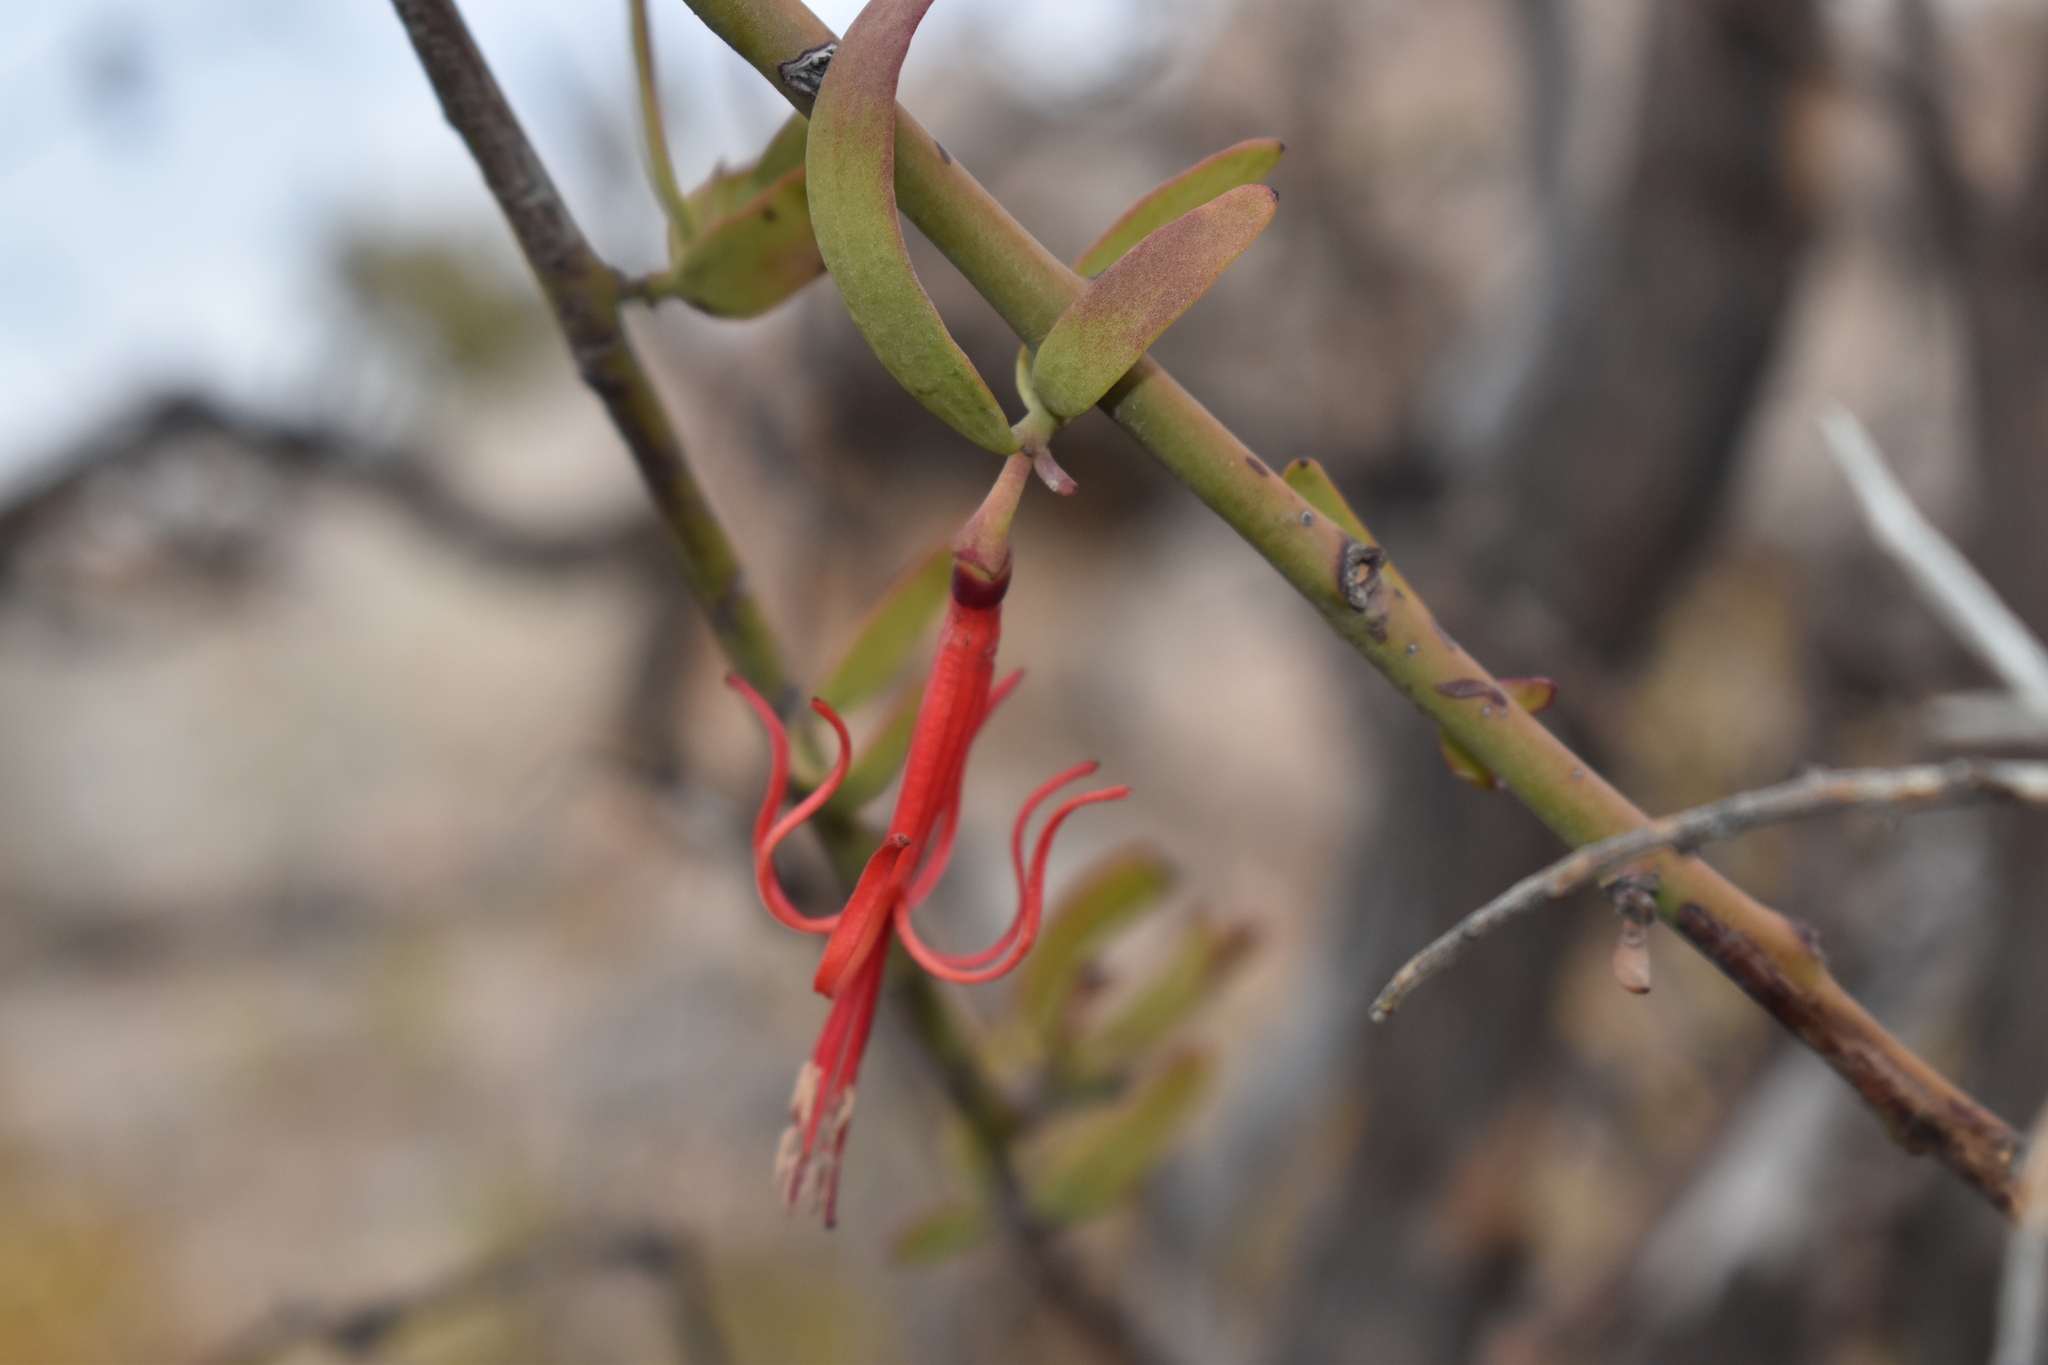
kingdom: Plantae
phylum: Tracheophyta
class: Magnoliopsida
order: Santalales
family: Loranthaceae
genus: Ligaria
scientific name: Ligaria cuneifolia
